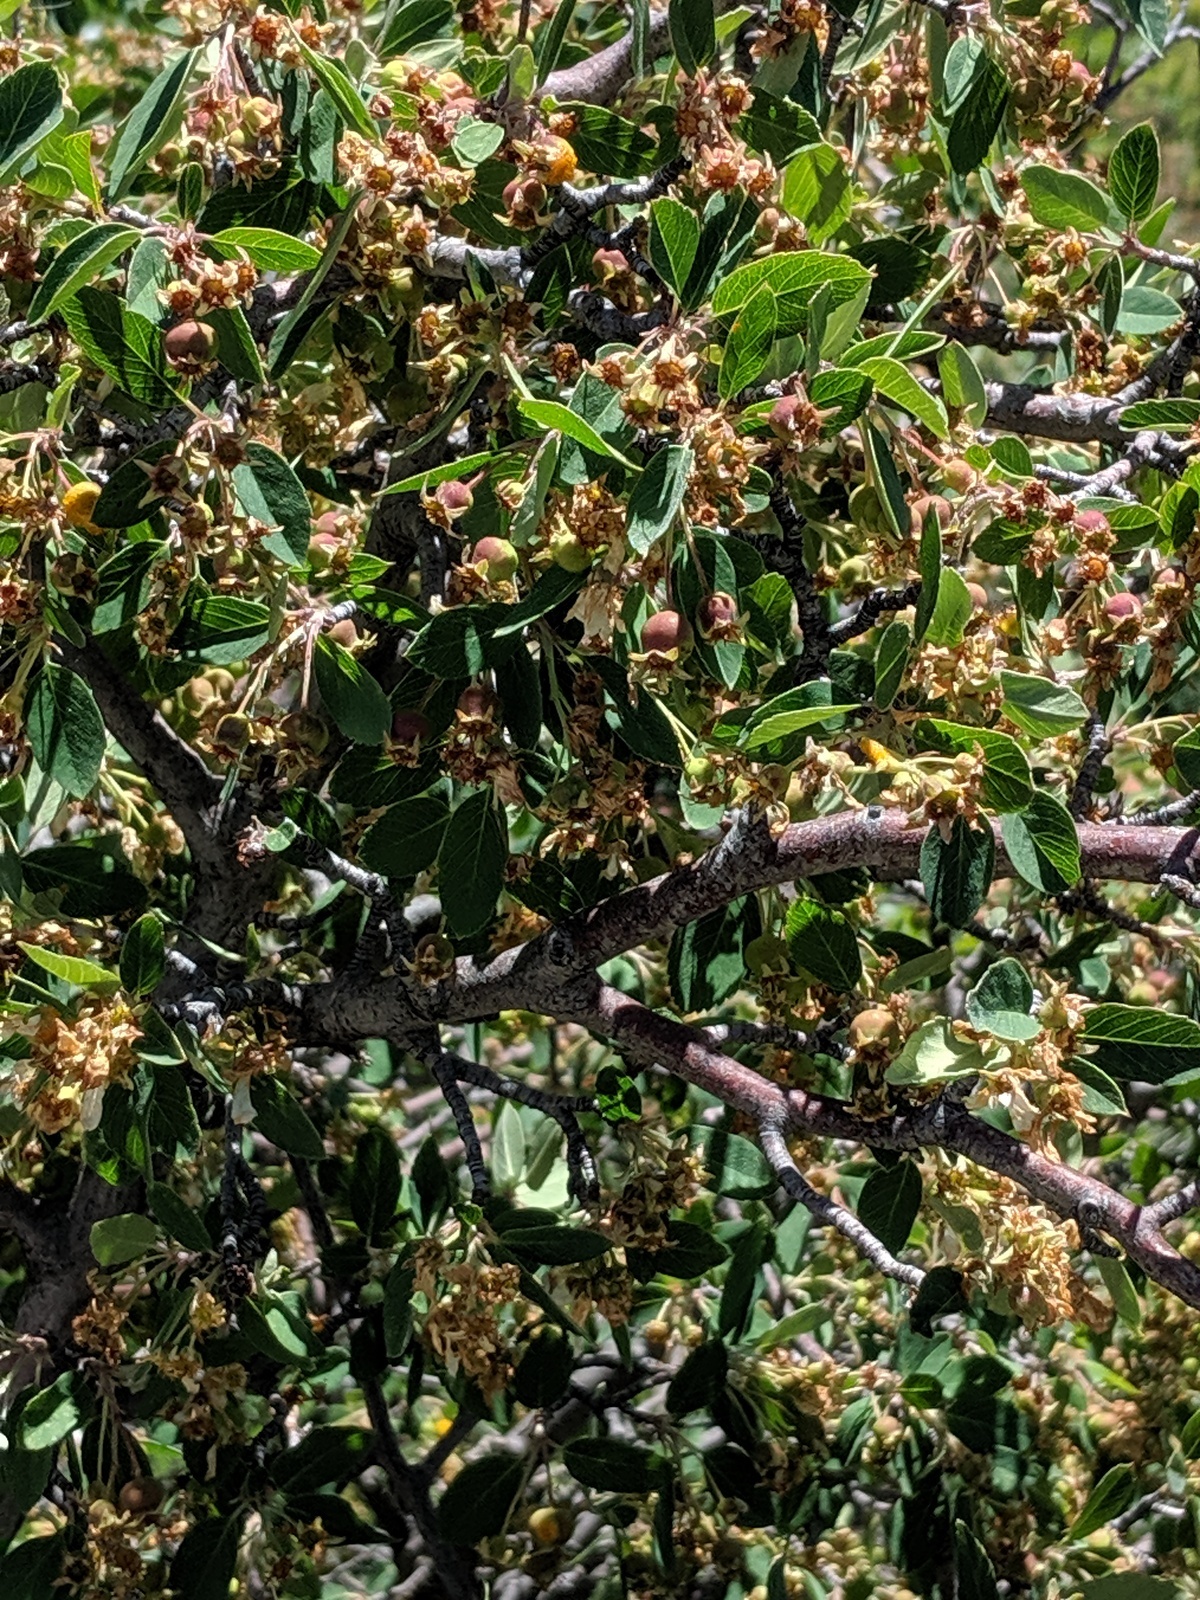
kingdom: Plantae
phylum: Tracheophyta
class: Magnoliopsida
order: Rosales
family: Rosaceae
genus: Amelanchier
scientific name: Amelanchier utahensis
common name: Utah serviceberry
